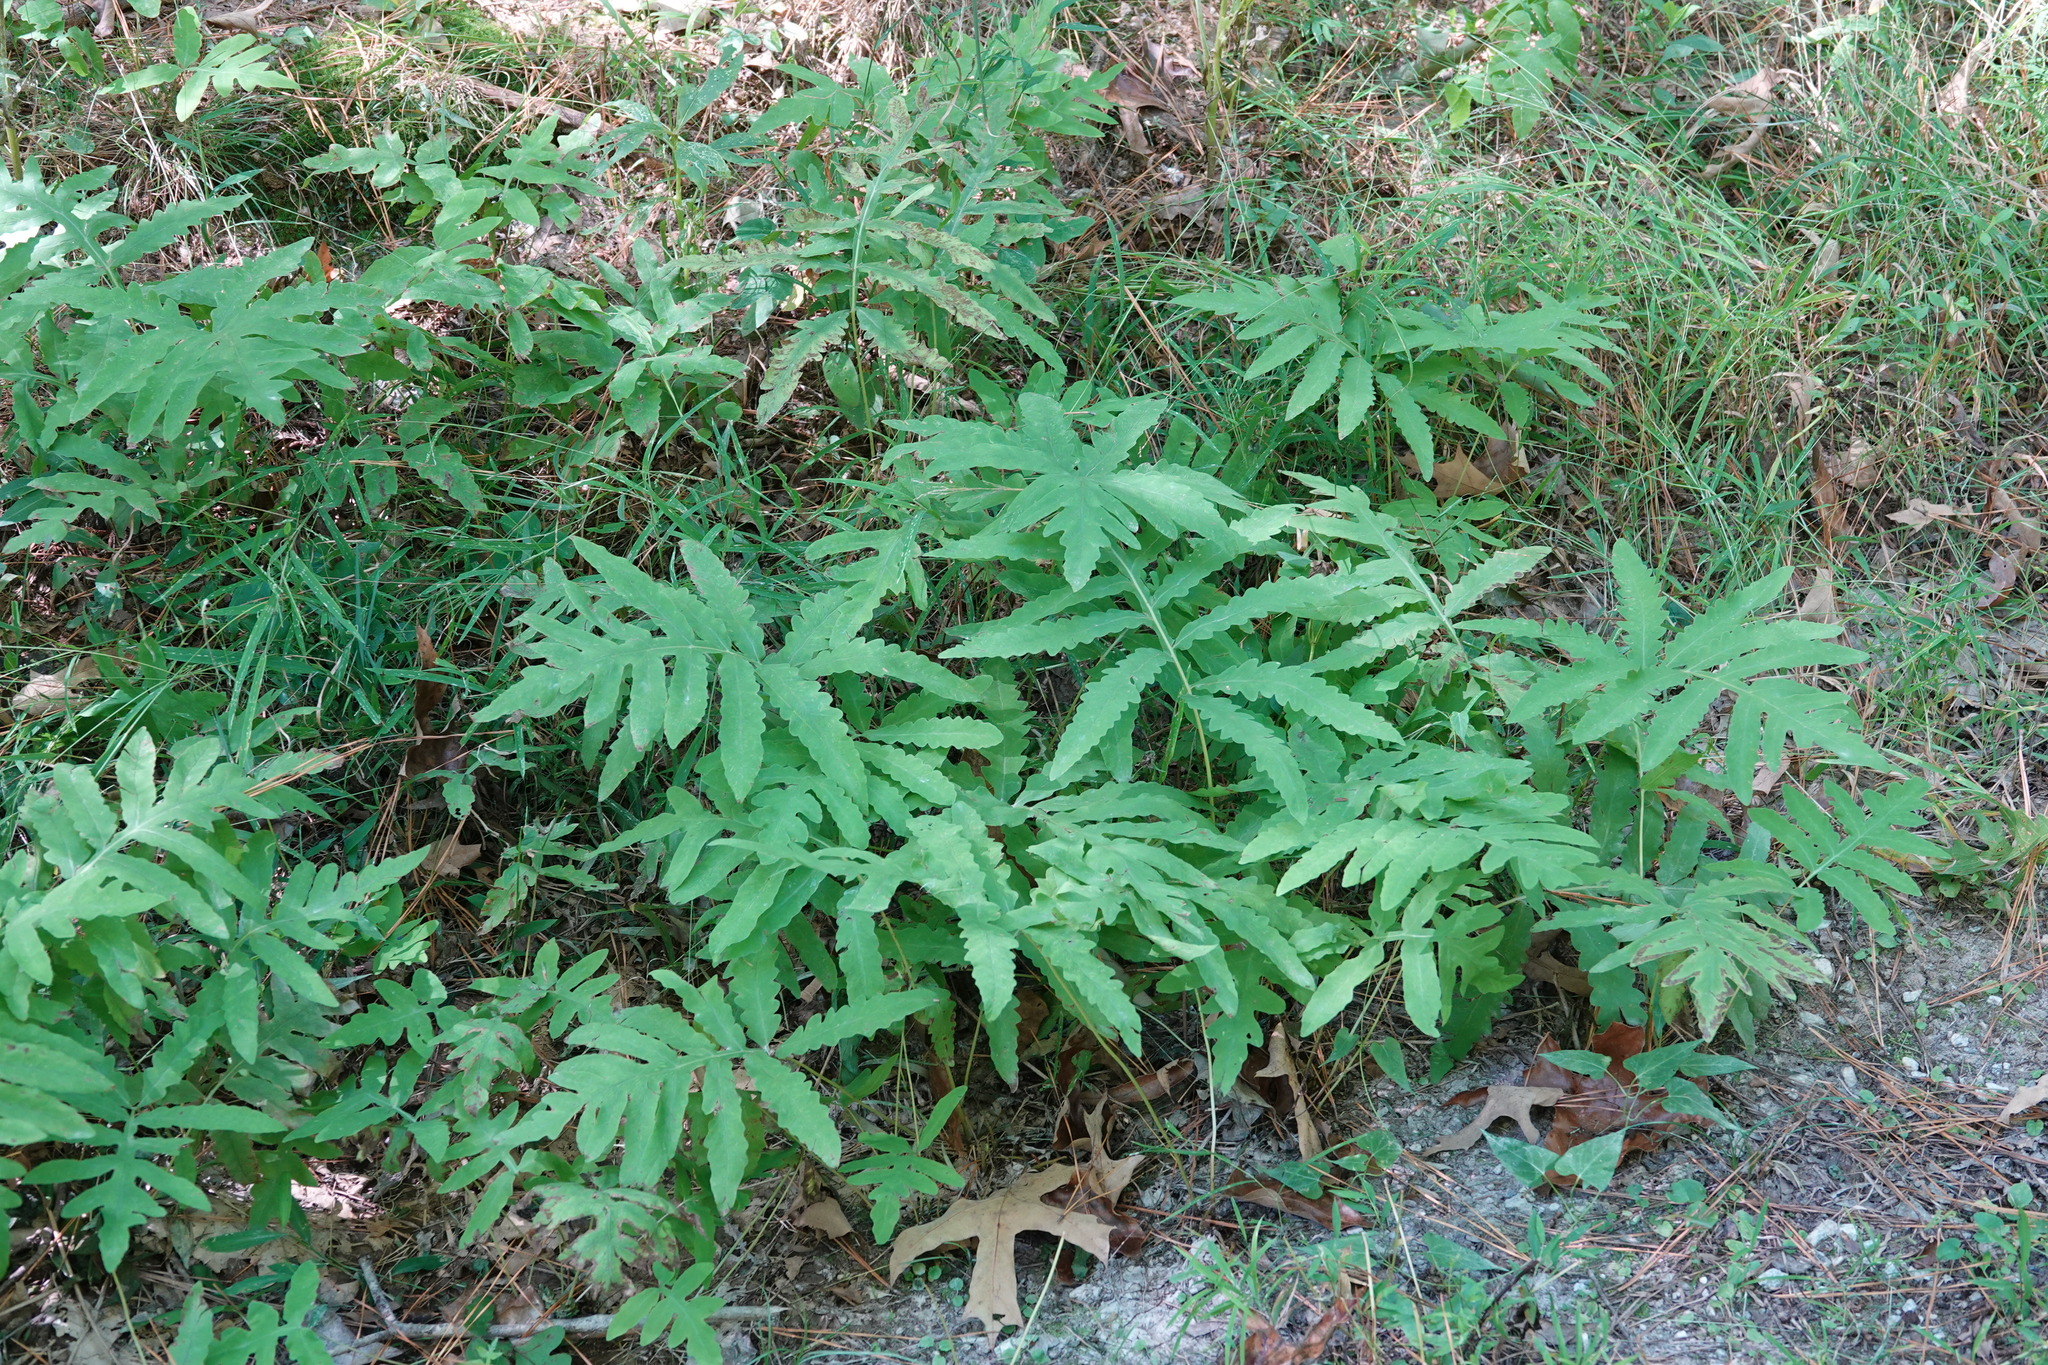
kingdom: Plantae
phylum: Tracheophyta
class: Polypodiopsida
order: Polypodiales
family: Onocleaceae
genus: Onoclea
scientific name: Onoclea sensibilis
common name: Sensitive fern
